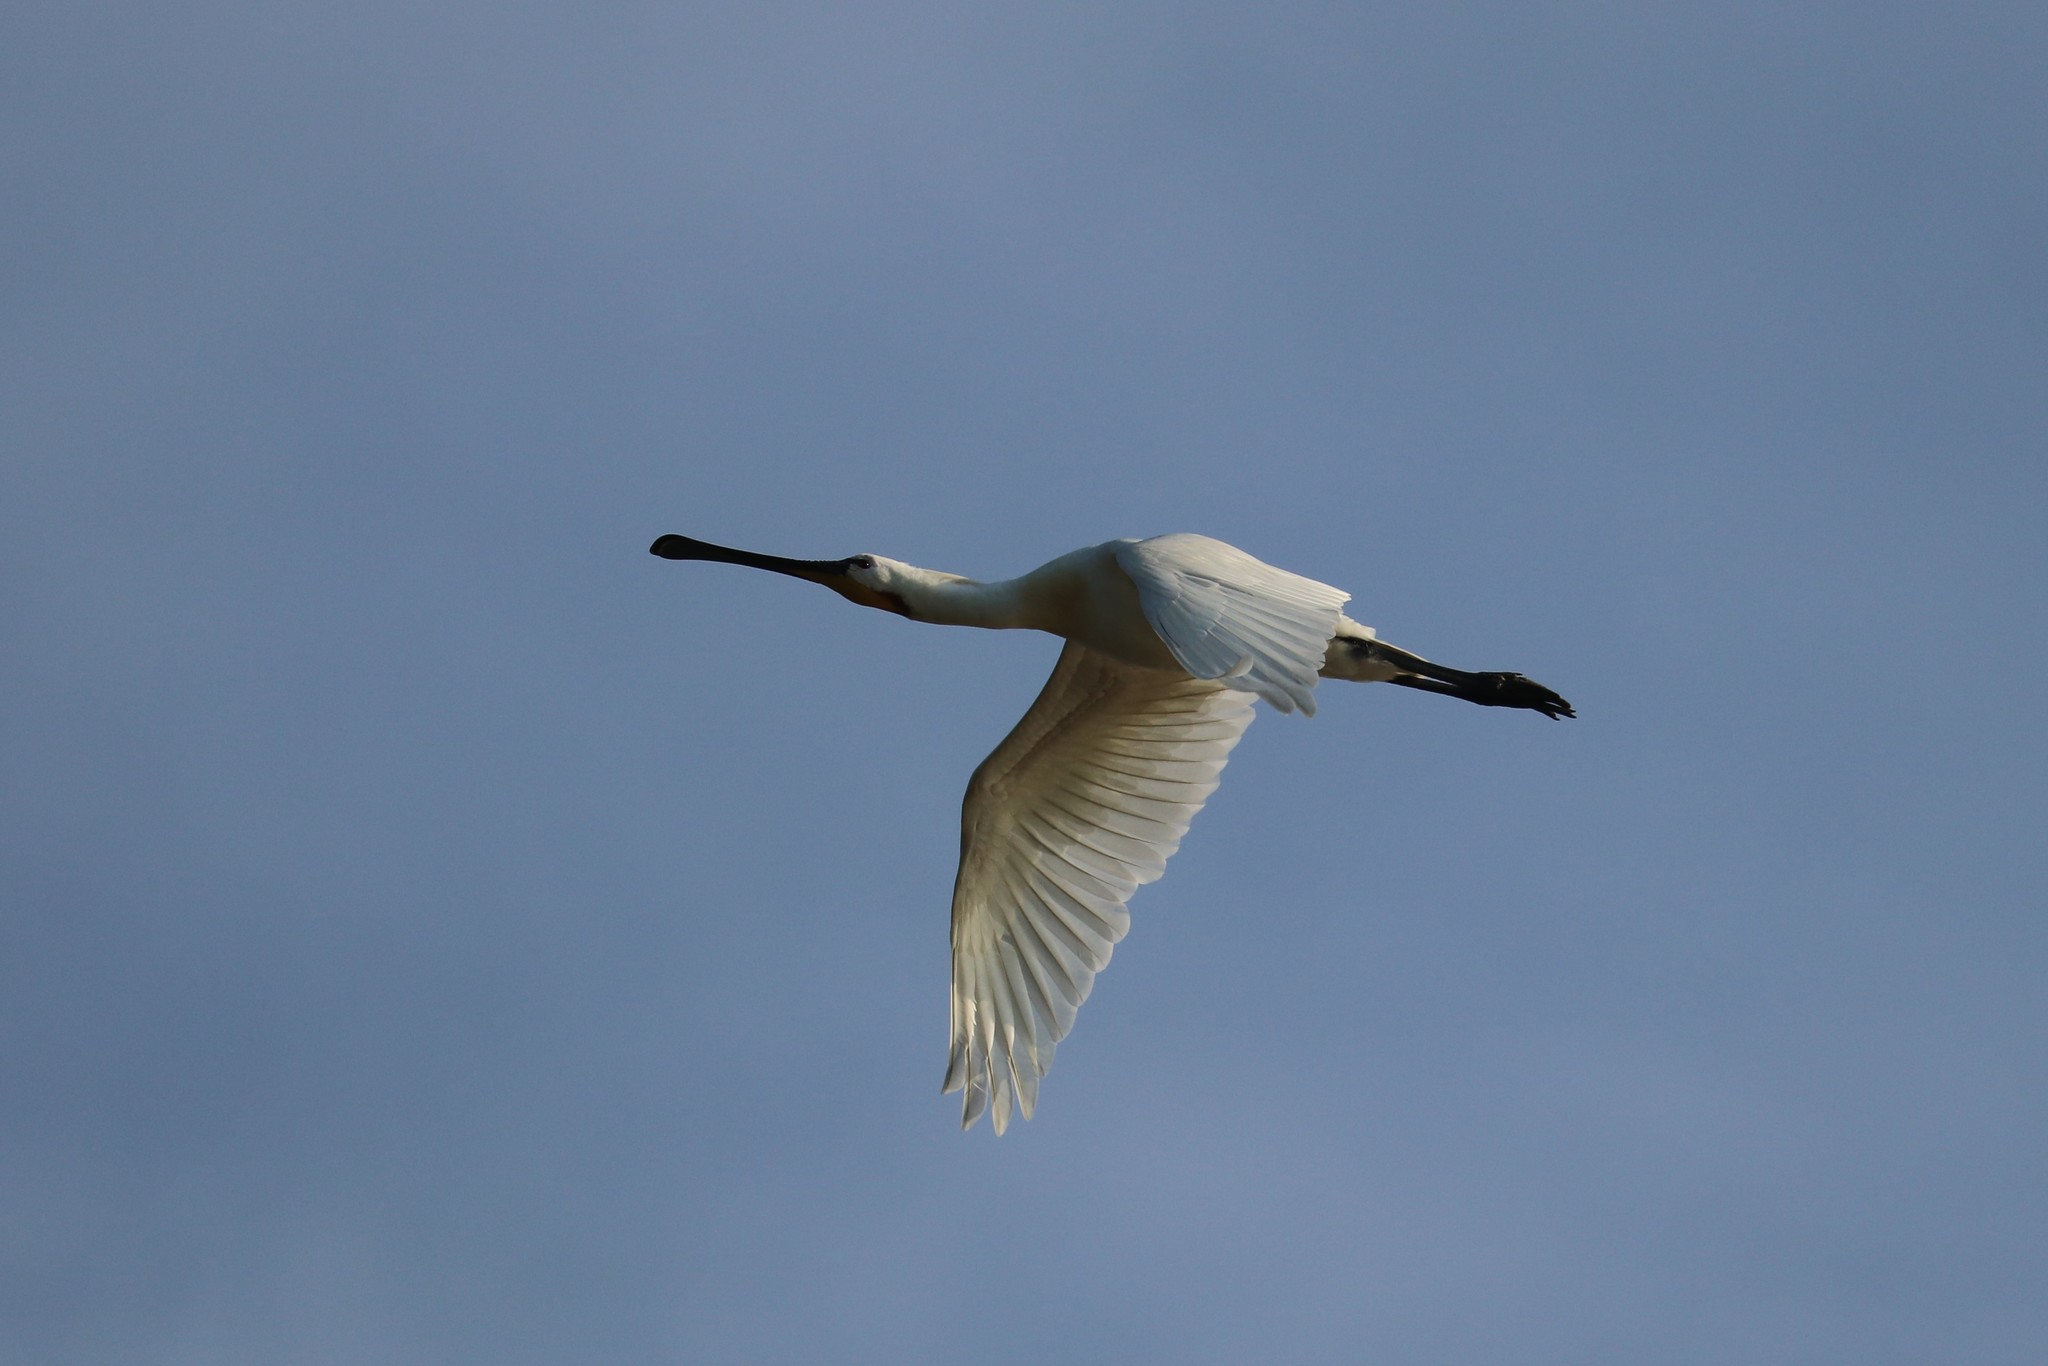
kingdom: Animalia
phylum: Chordata
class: Aves
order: Pelecaniformes
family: Threskiornithidae
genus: Platalea
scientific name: Platalea leucorodia
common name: Eurasian spoonbill
